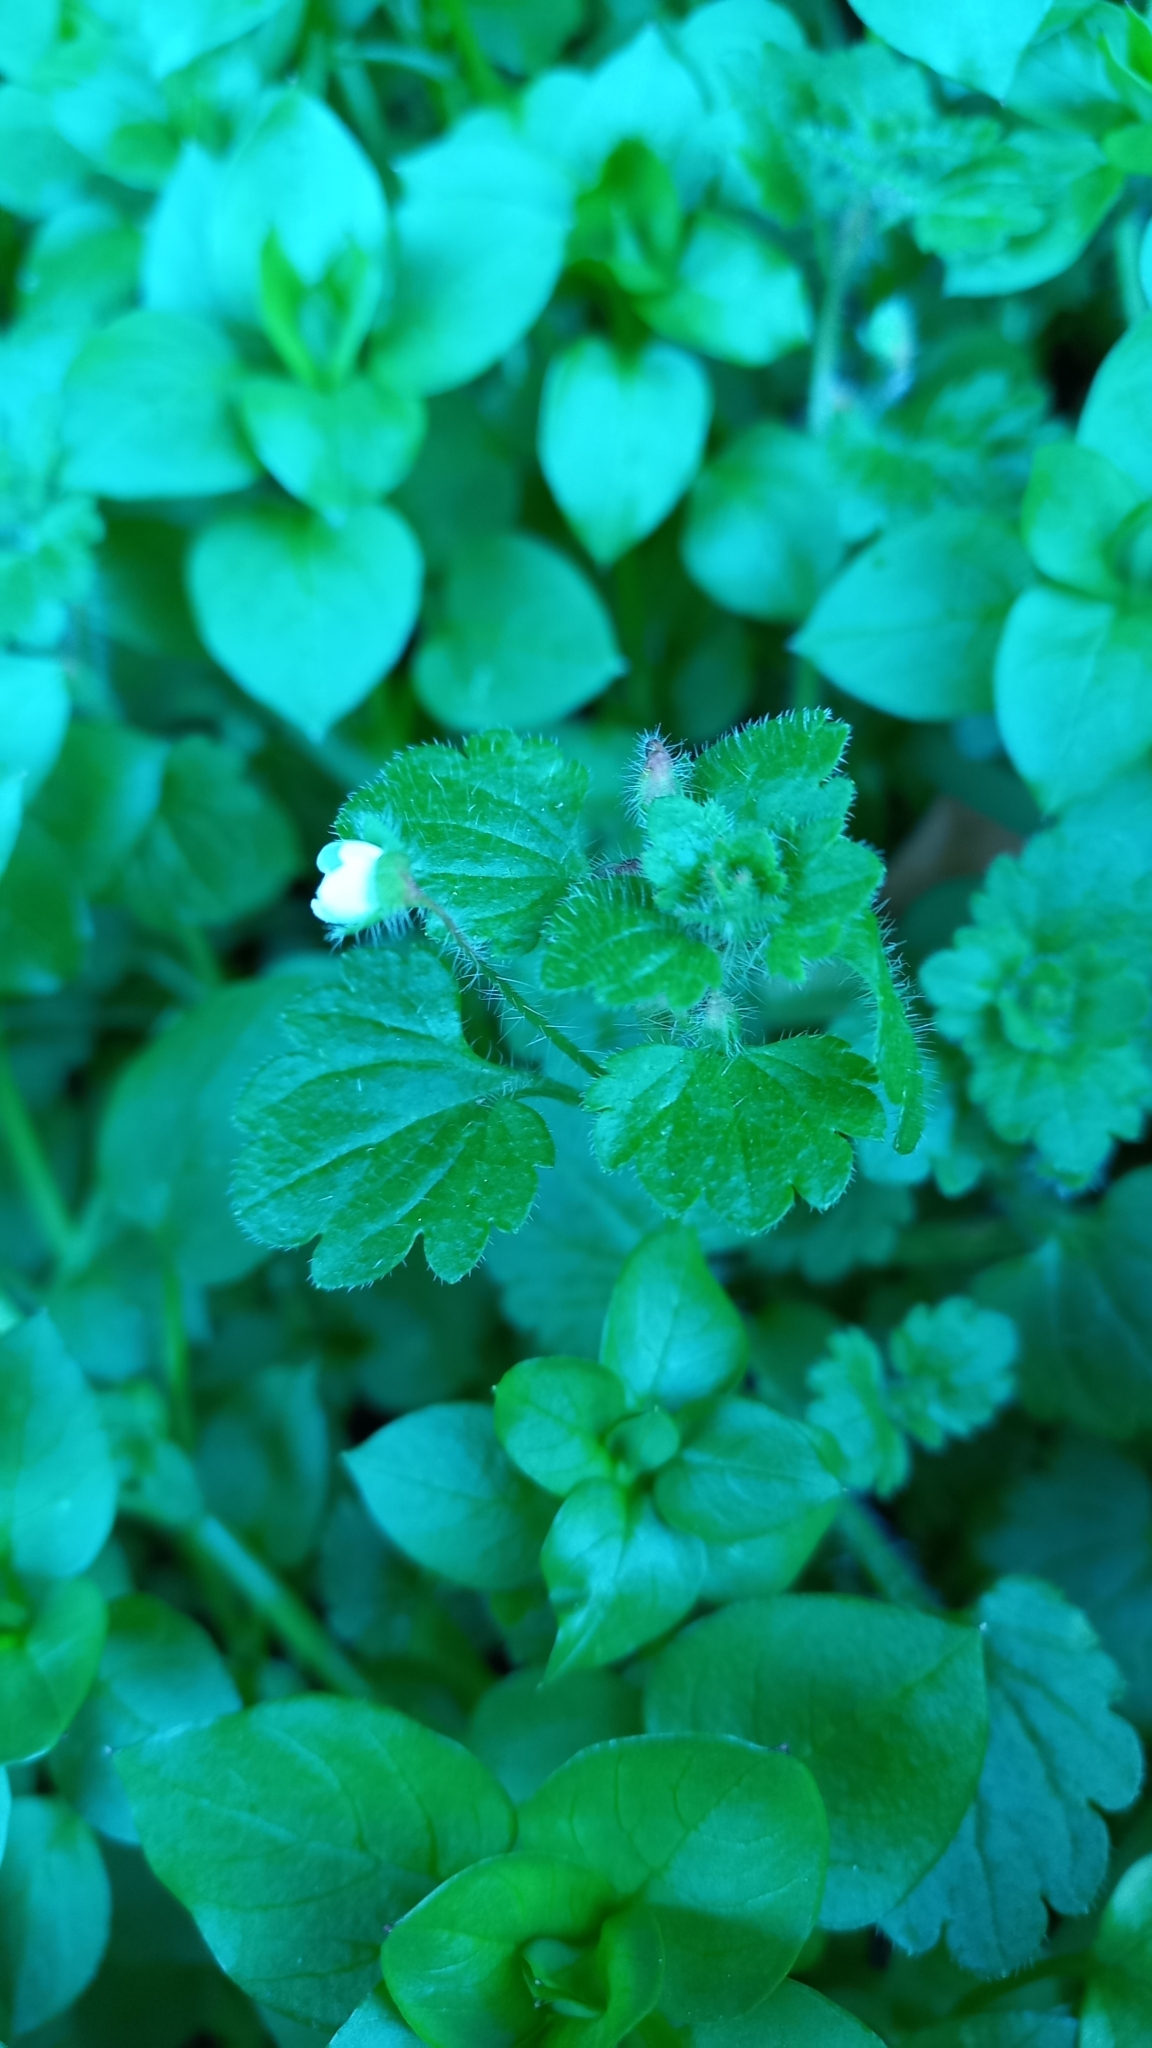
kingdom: Plantae
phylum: Tracheophyta
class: Magnoliopsida
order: Lamiales
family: Plantaginaceae
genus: Veronica
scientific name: Veronica cymbalaria
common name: Pale speedwell
